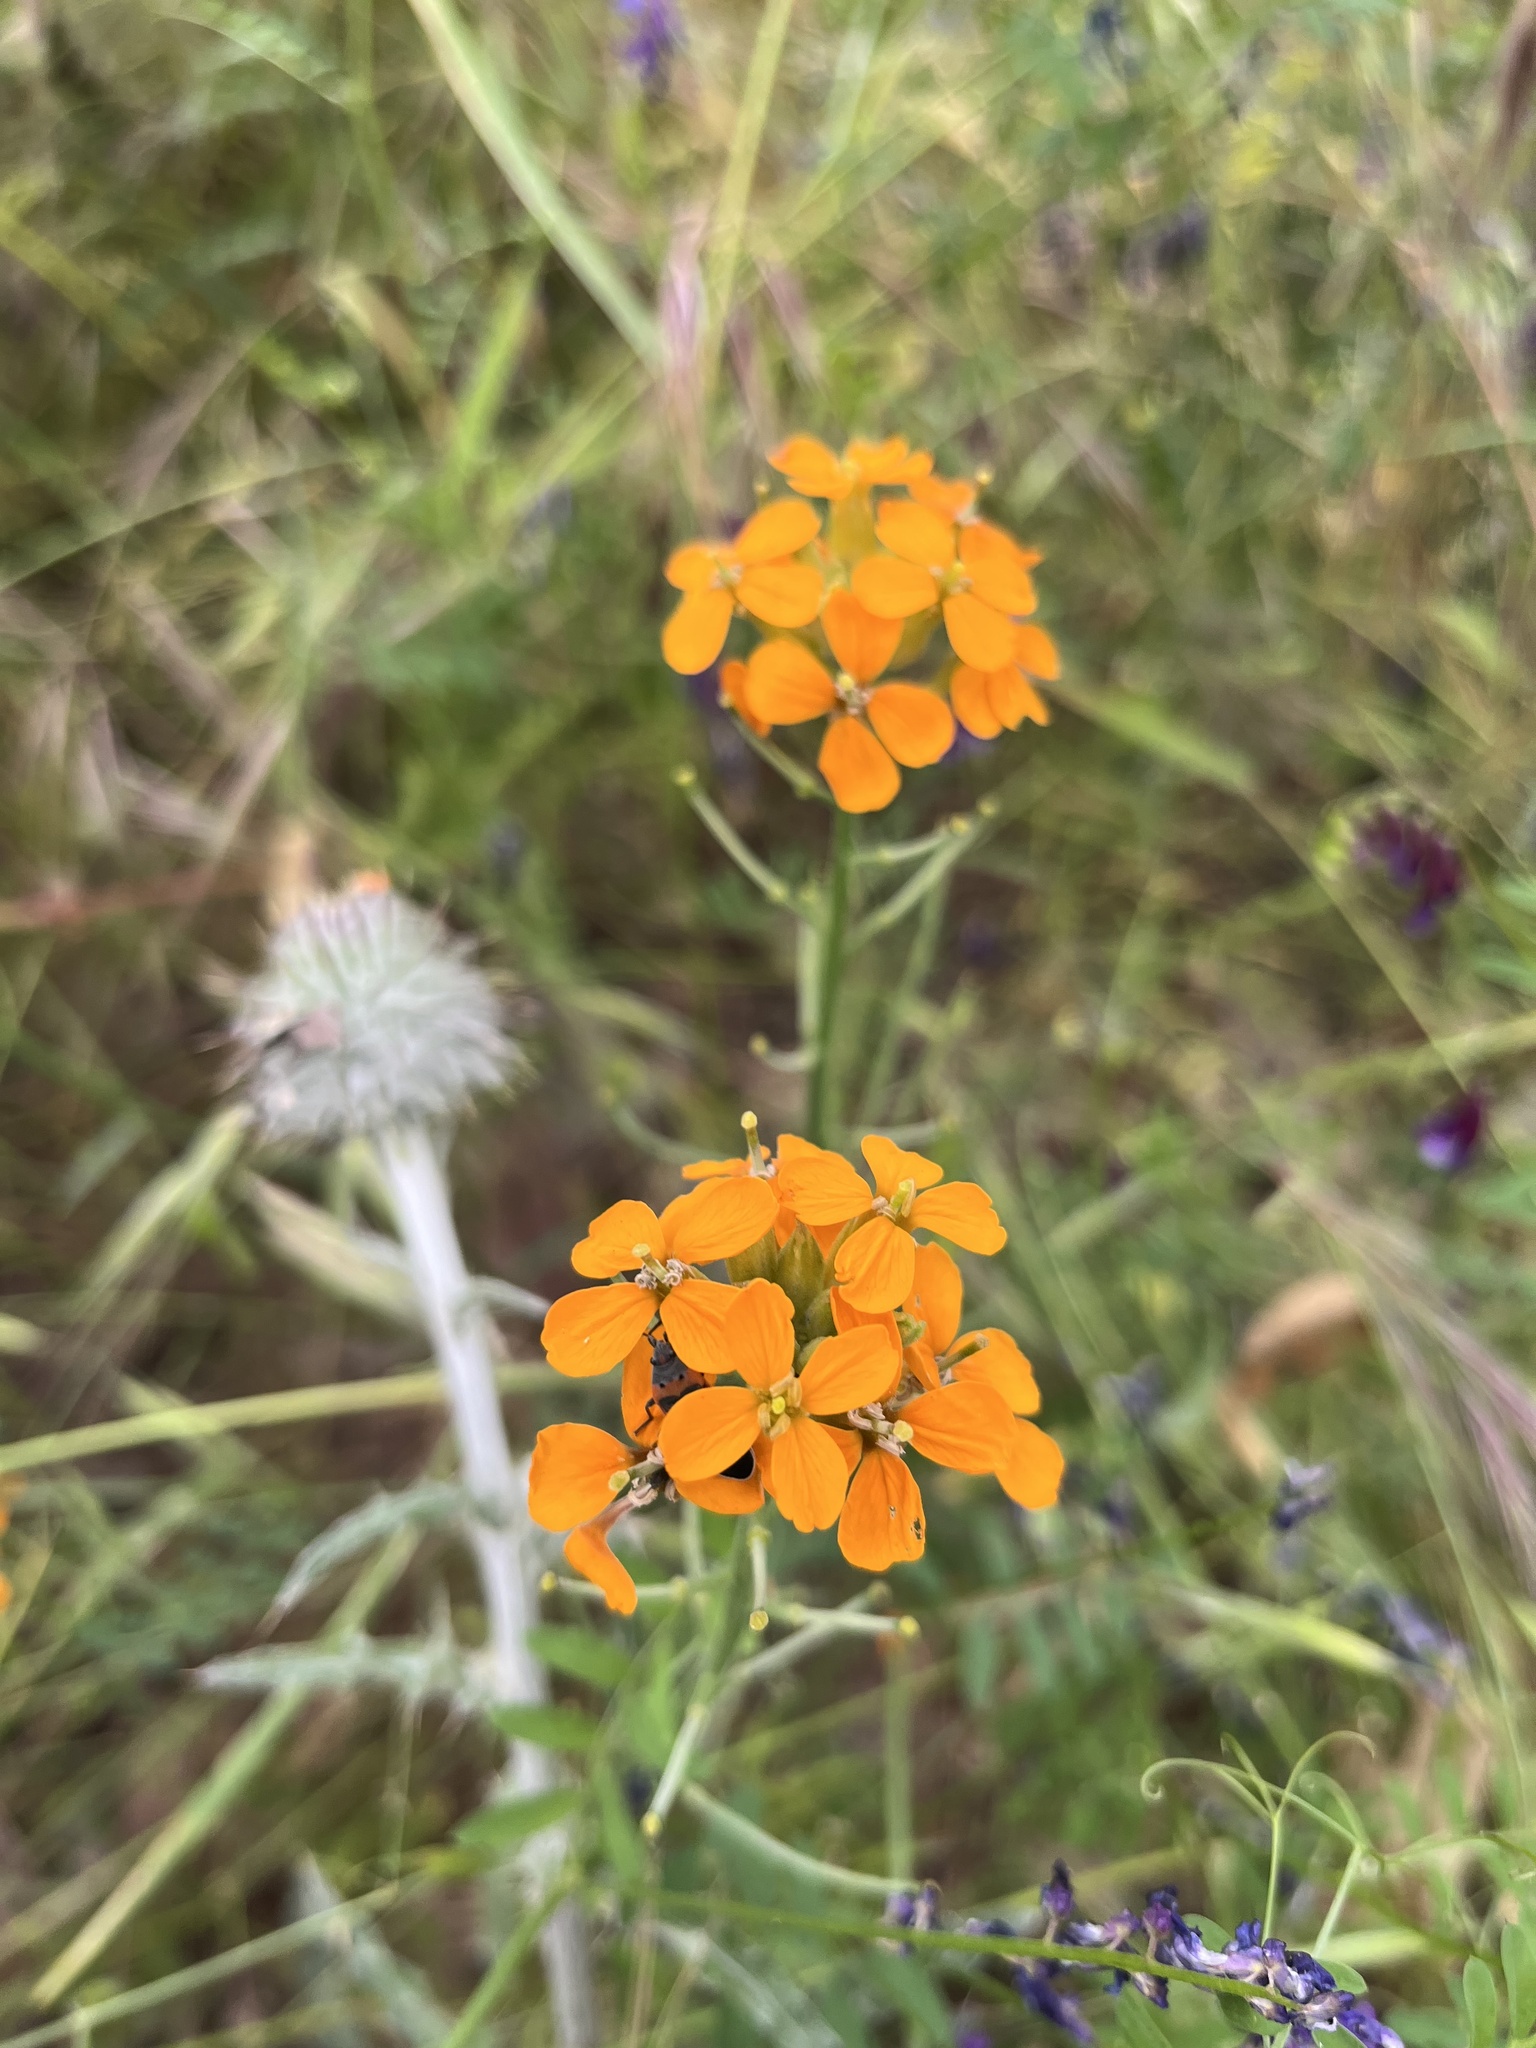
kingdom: Plantae
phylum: Tracheophyta
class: Magnoliopsida
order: Brassicales
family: Brassicaceae
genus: Erysimum
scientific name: Erysimum capitatum
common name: Western wallflower
